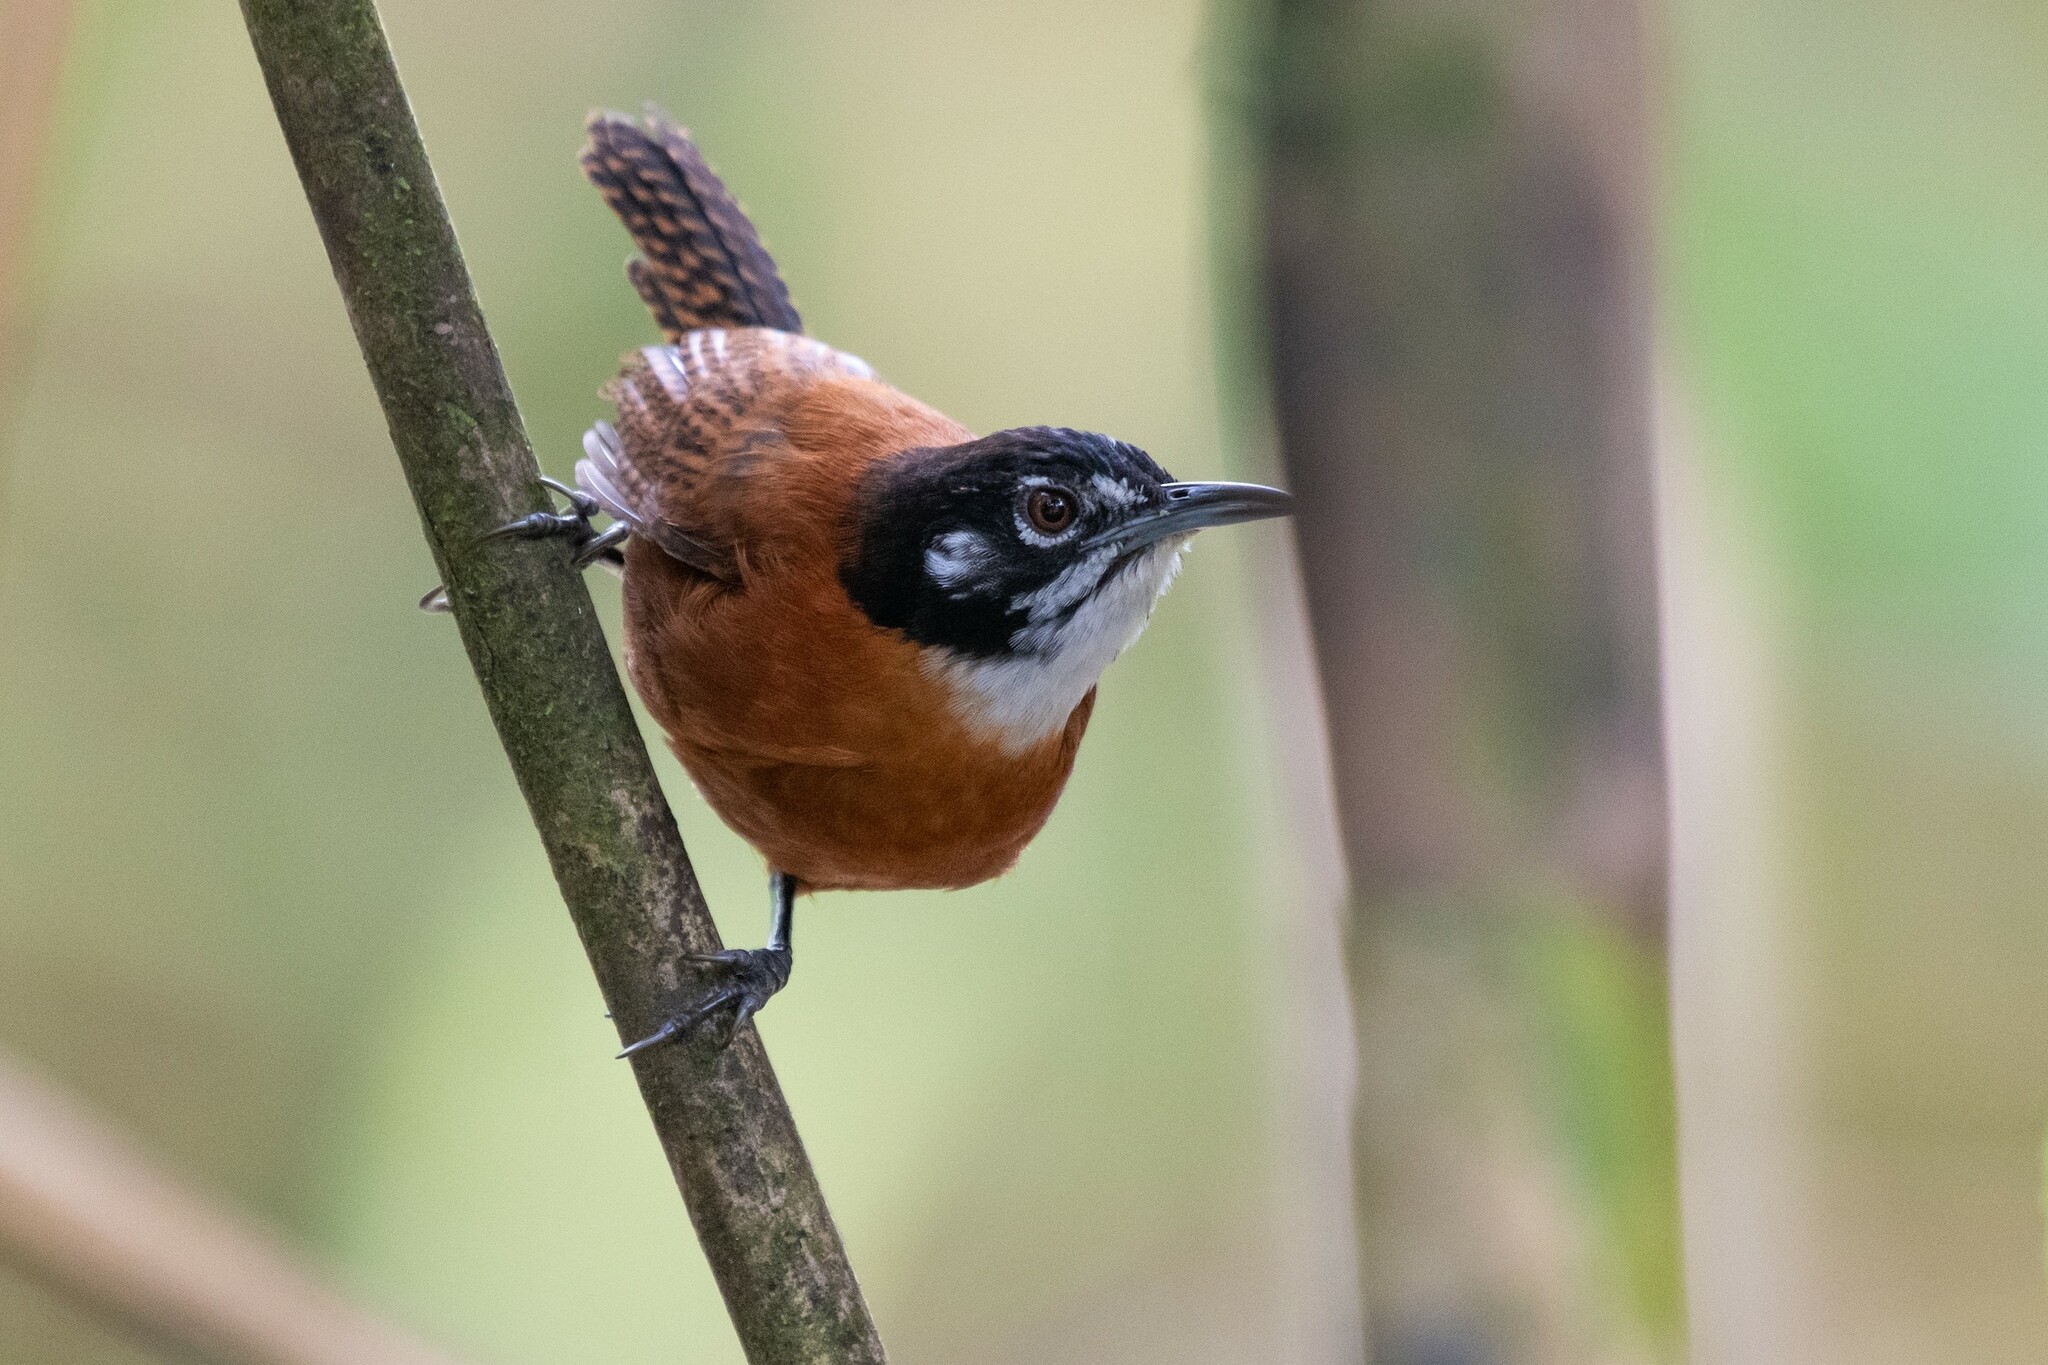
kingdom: Animalia
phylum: Chordata
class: Aves
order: Passeriformes
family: Troglodytidae
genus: Cantorchilus
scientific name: Cantorchilus nigricapillus
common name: Bay wren
